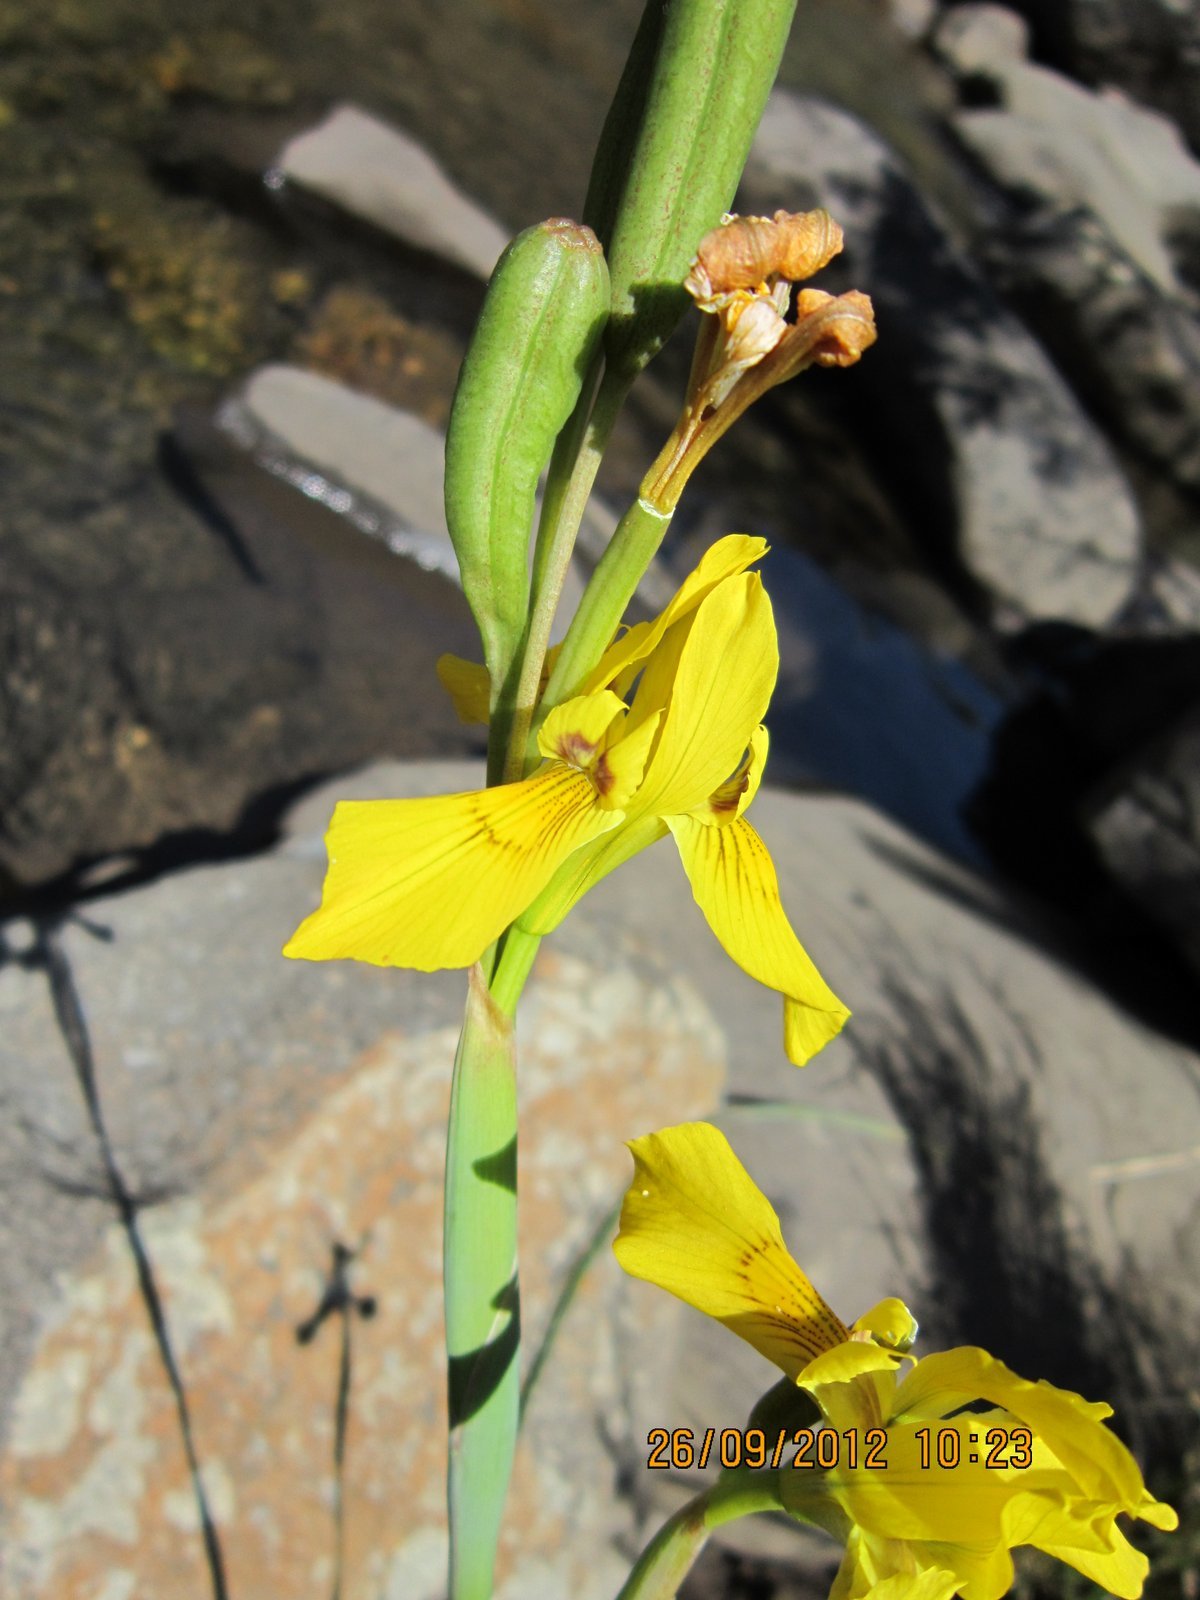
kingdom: Plantae
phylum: Tracheophyta
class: Liliopsida
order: Asparagales
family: Iridaceae
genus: Moraea
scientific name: Moraea huttonii
